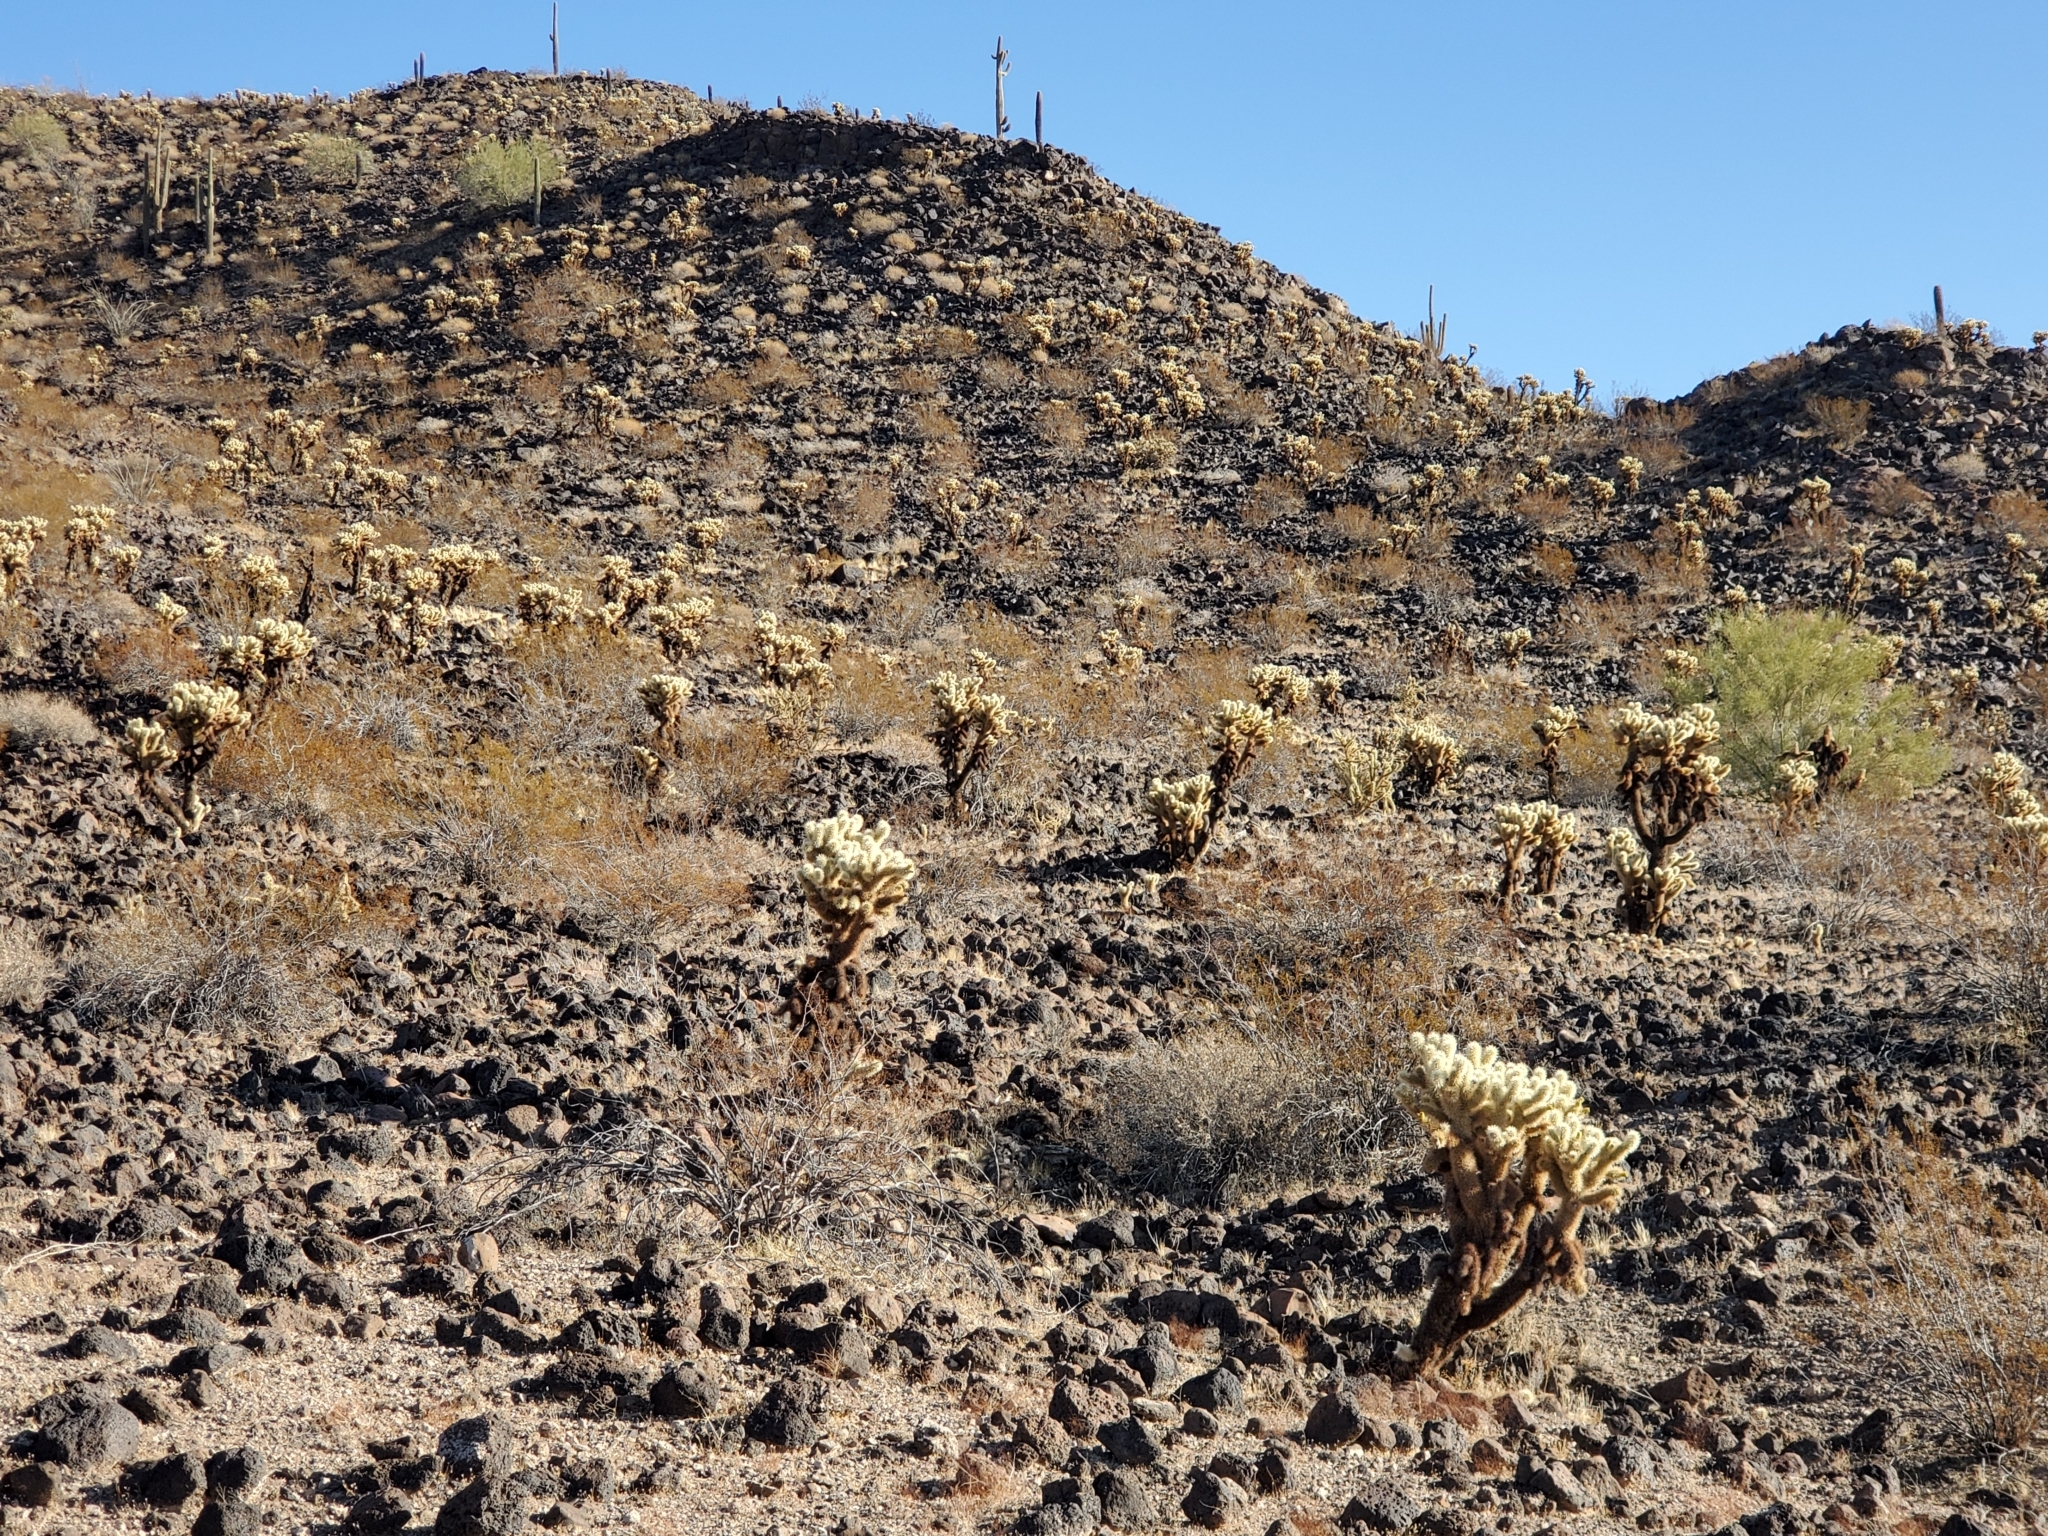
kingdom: Plantae
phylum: Tracheophyta
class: Magnoliopsida
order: Caryophyllales
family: Cactaceae
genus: Cylindropuntia
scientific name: Cylindropuntia fosbergii
